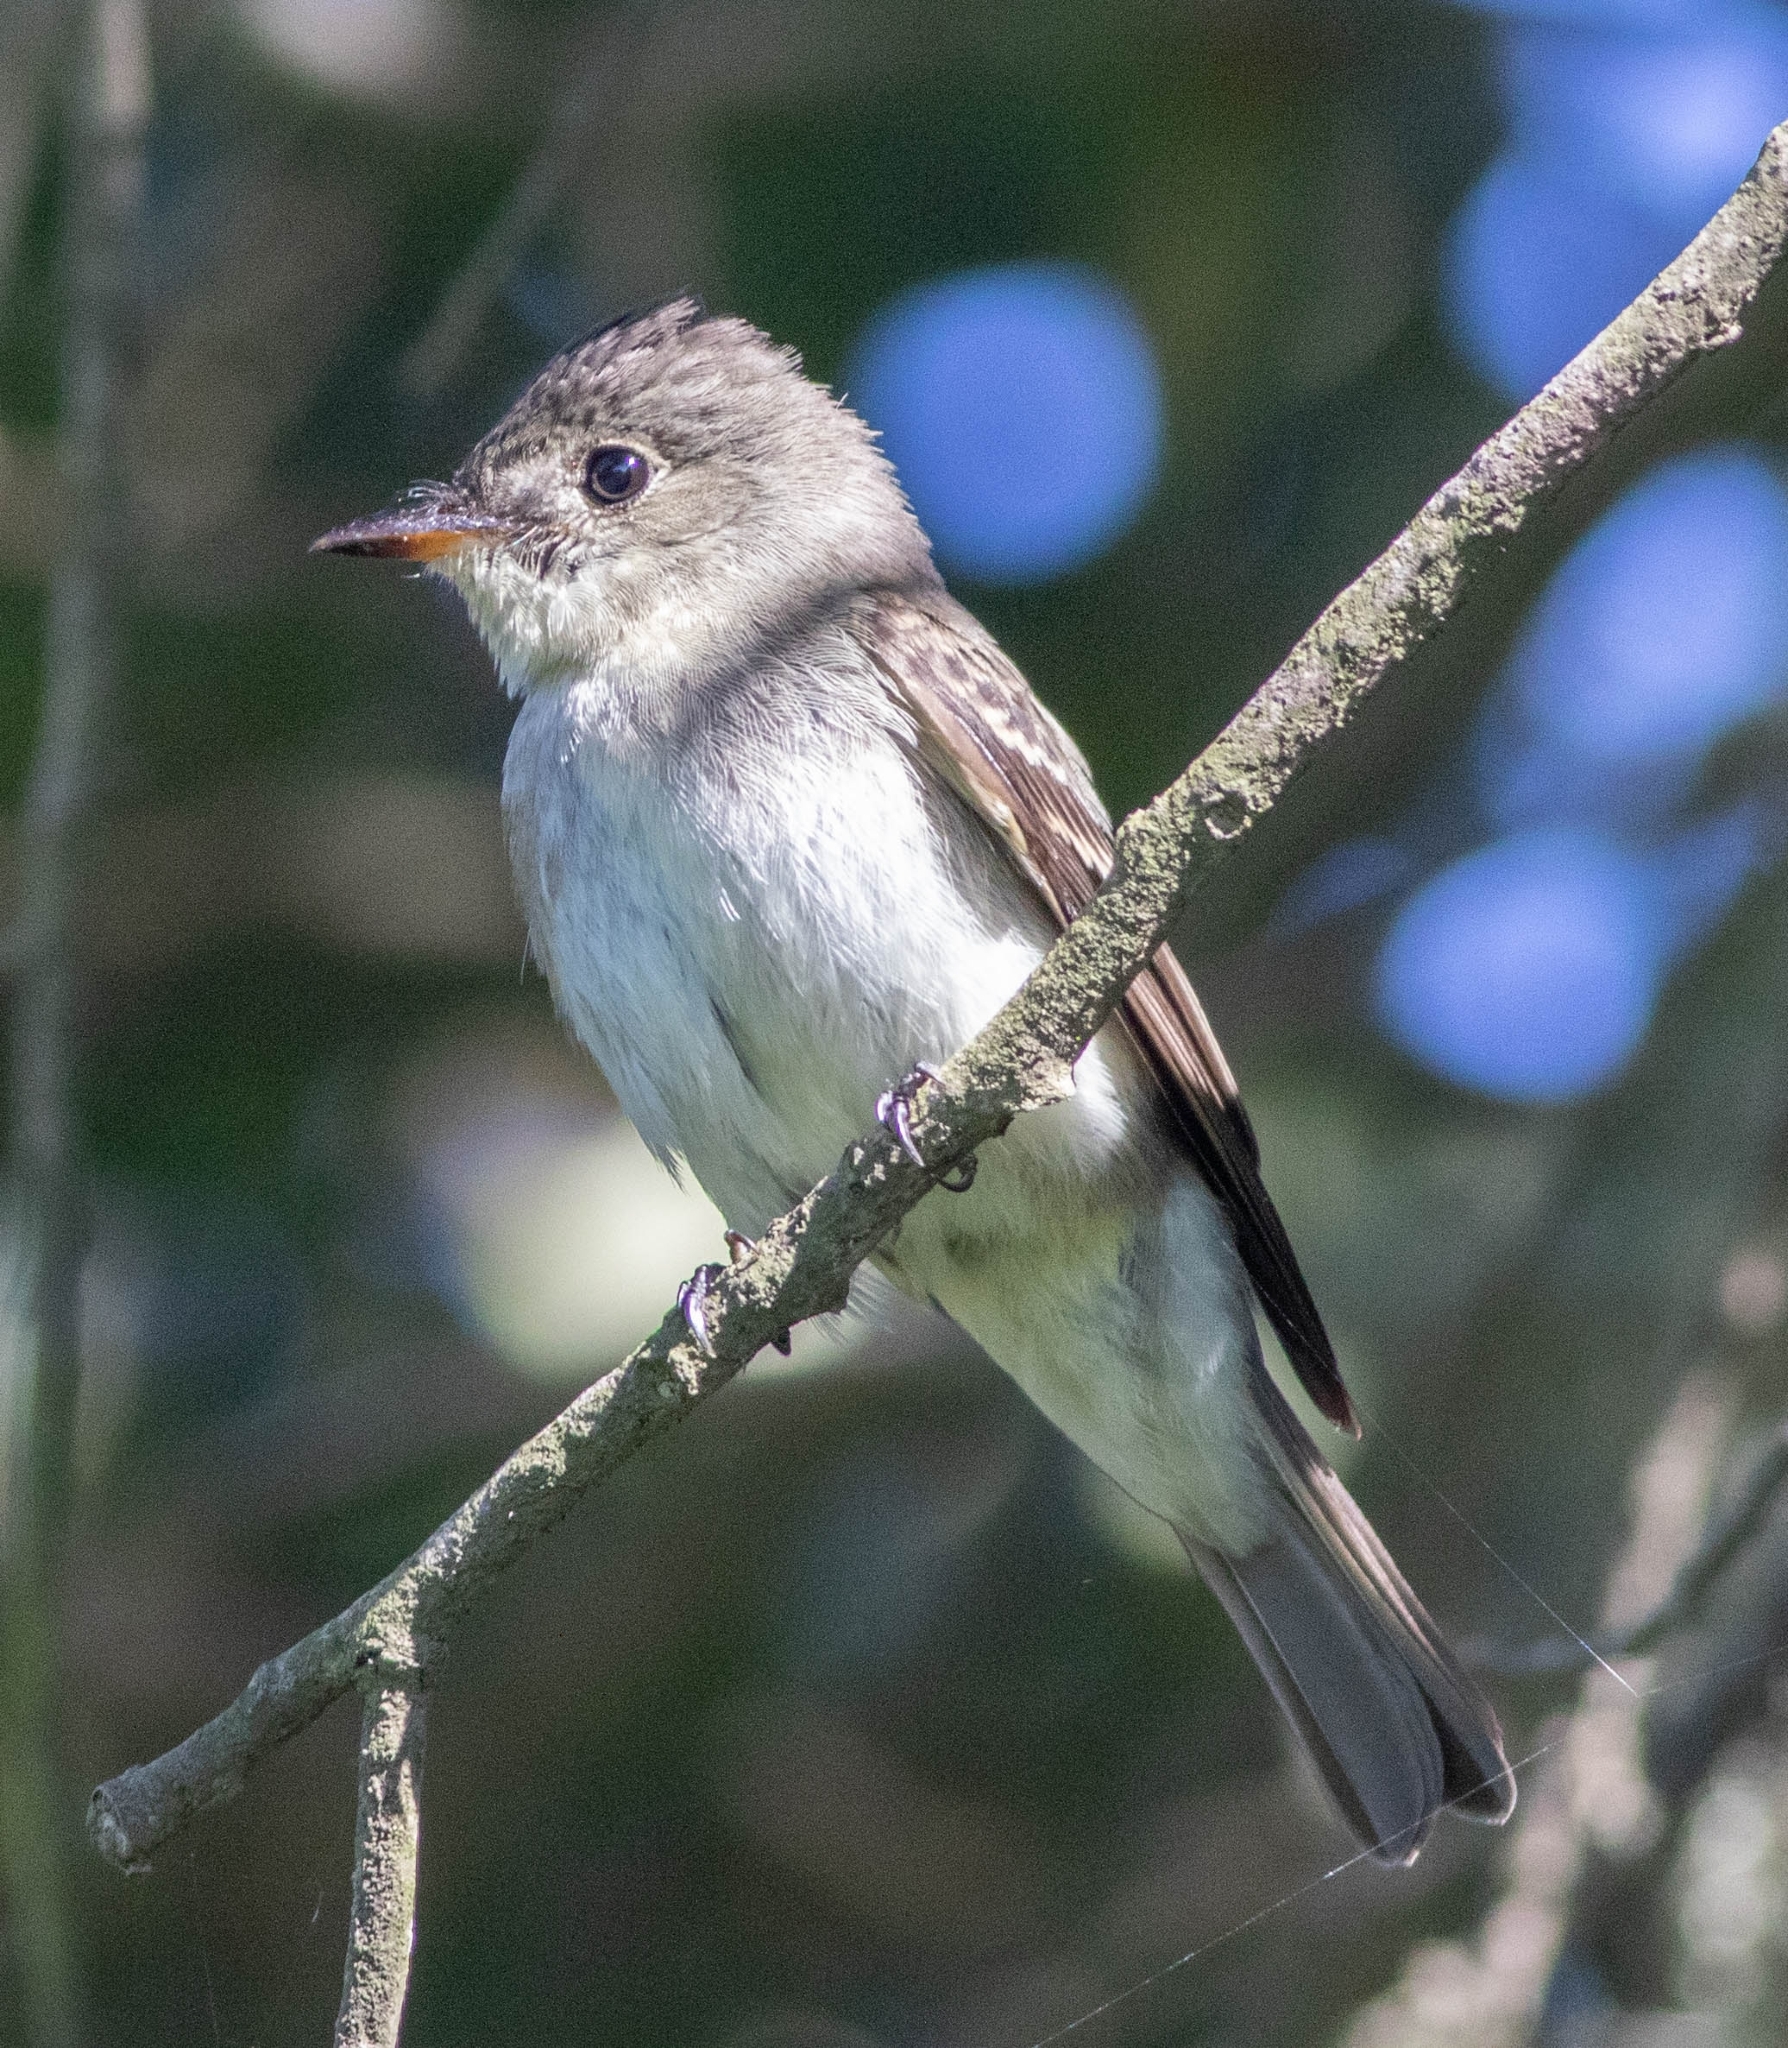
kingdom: Animalia
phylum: Chordata
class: Aves
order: Passeriformes
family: Tyrannidae
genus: Contopus
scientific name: Contopus virens
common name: Eastern wood-pewee
